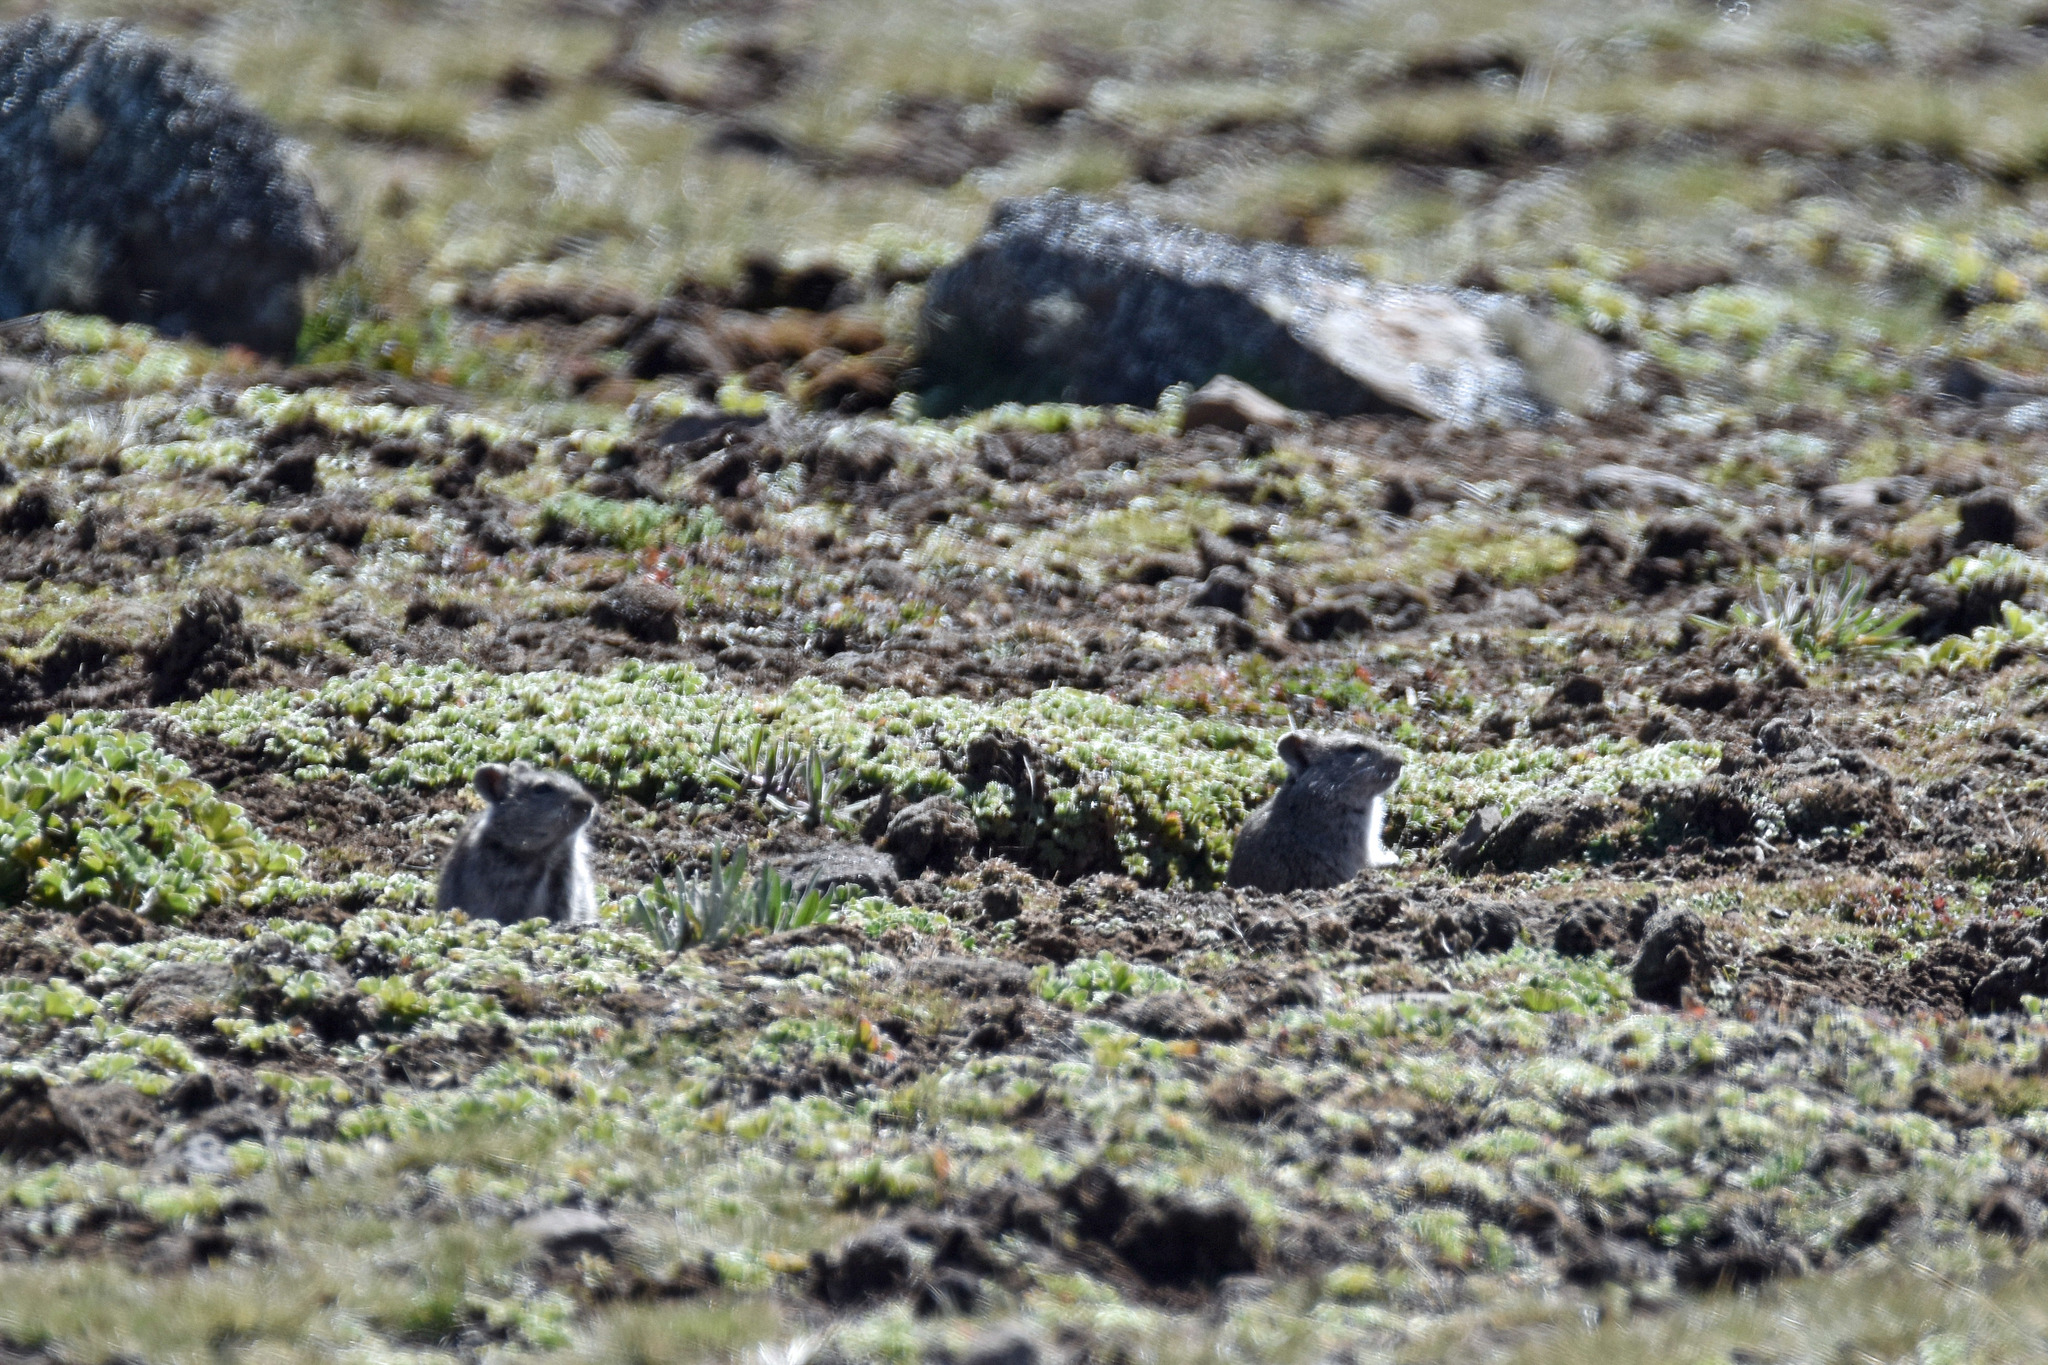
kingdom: Animalia
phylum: Chordata
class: Mammalia
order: Rodentia
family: Muridae
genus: Arvicanthis
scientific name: Arvicanthis blicki
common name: Blick s arvicanthis
